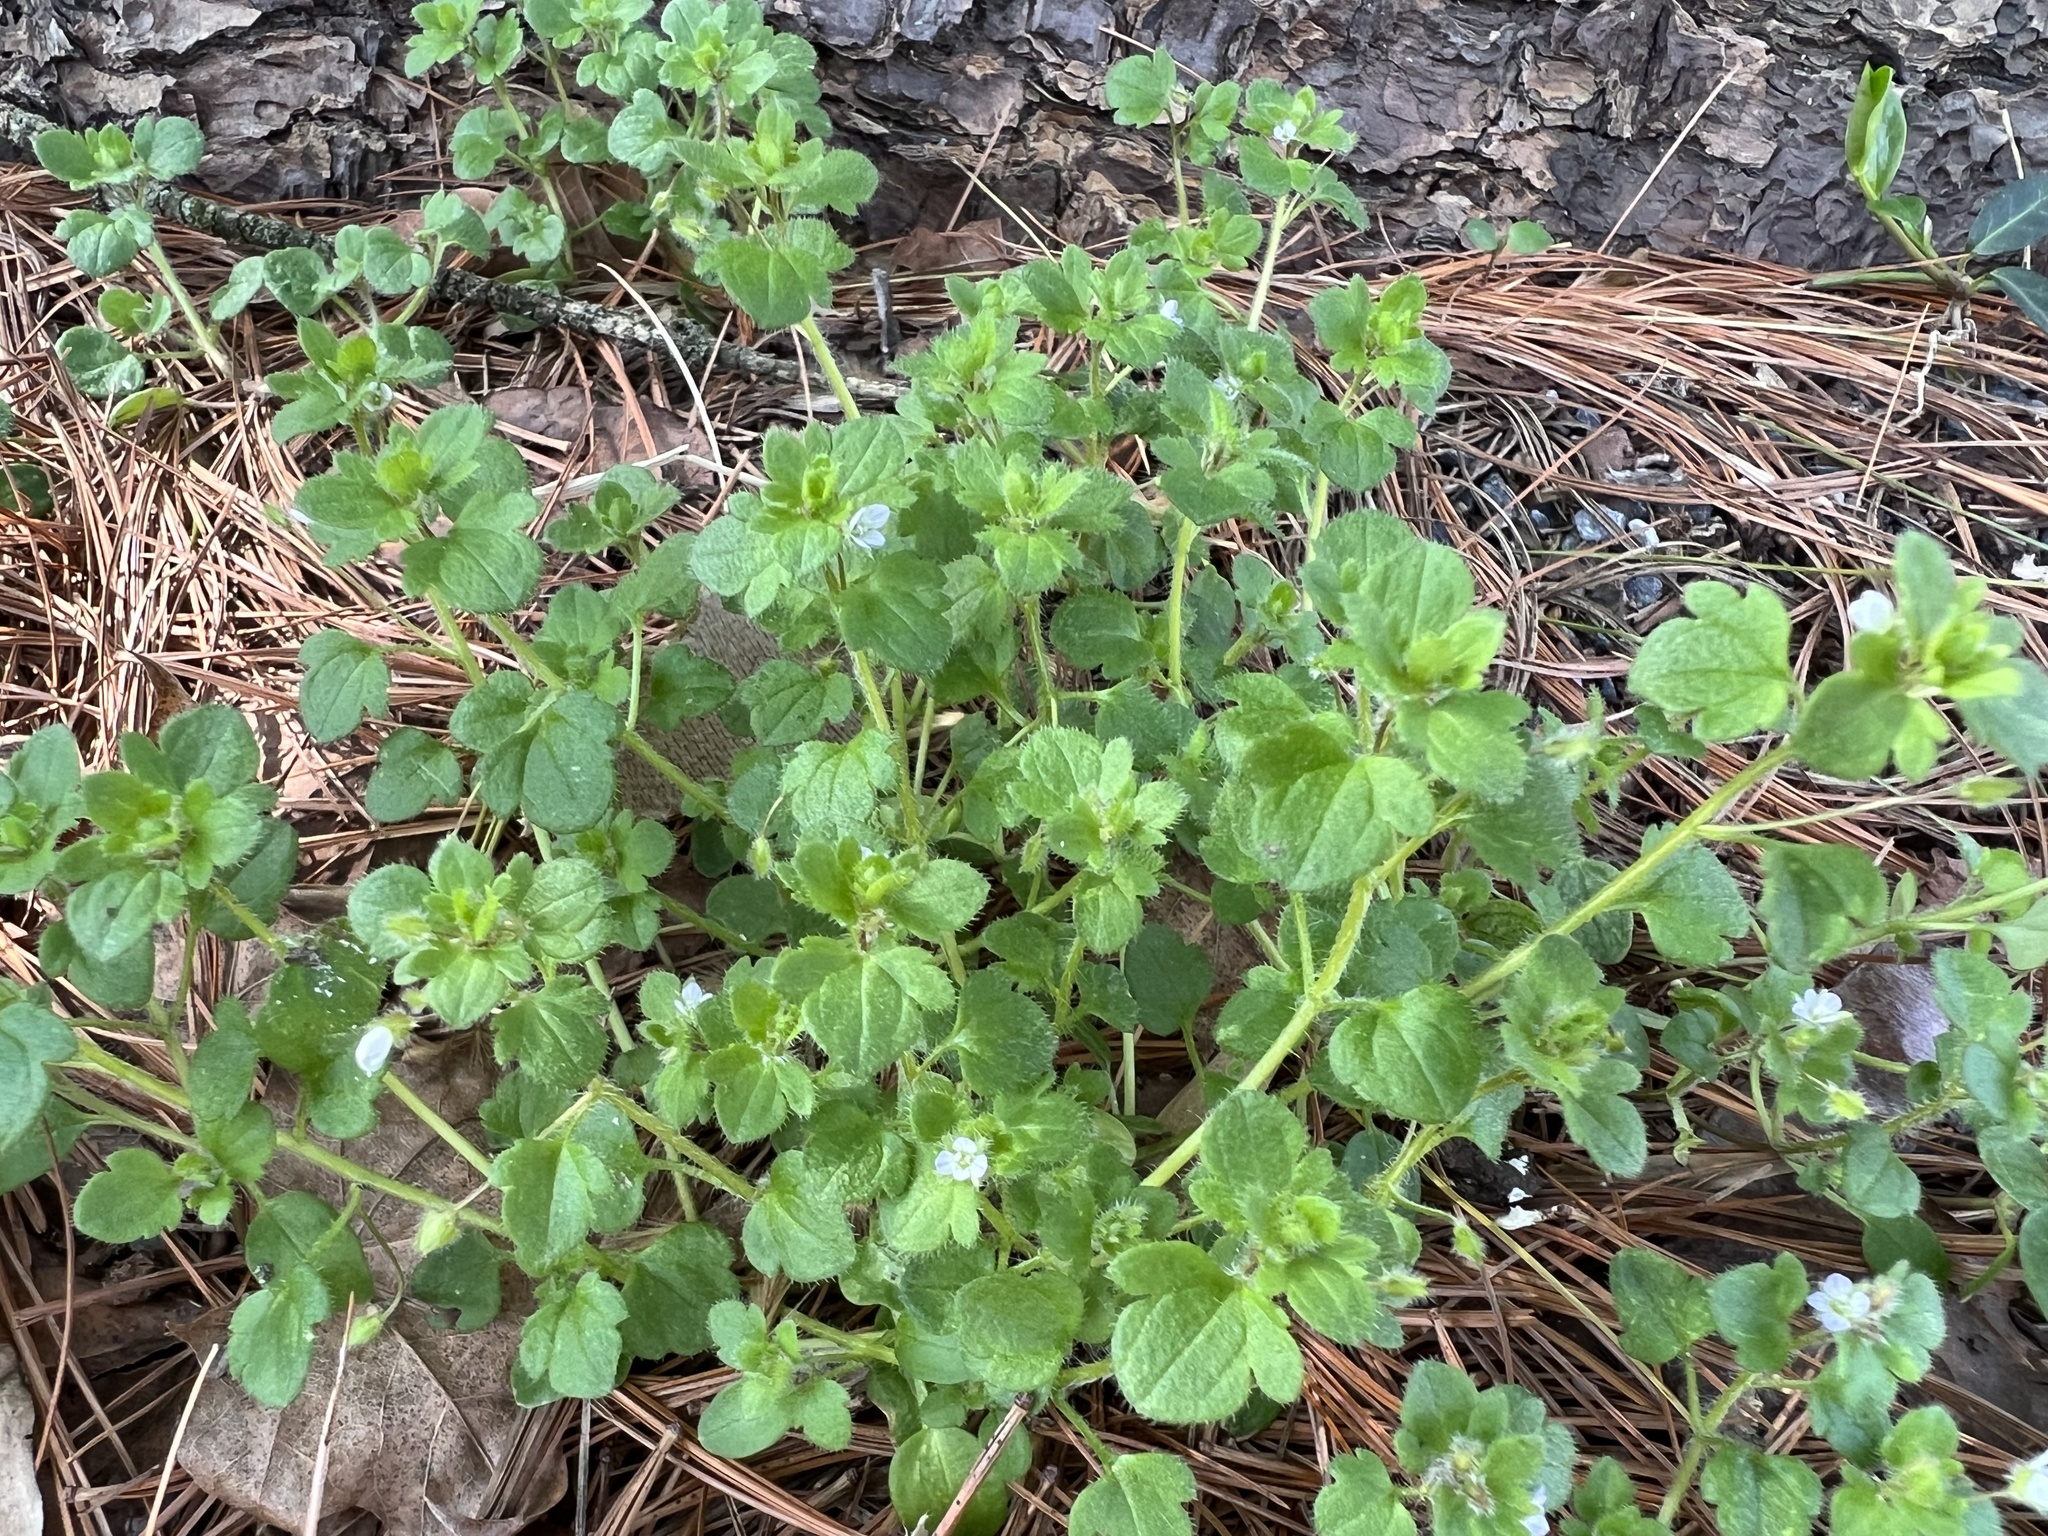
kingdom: Plantae
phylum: Tracheophyta
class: Magnoliopsida
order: Lamiales
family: Plantaginaceae
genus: Veronica
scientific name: Veronica hederifolia
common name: Ivy-leaved speedwell
